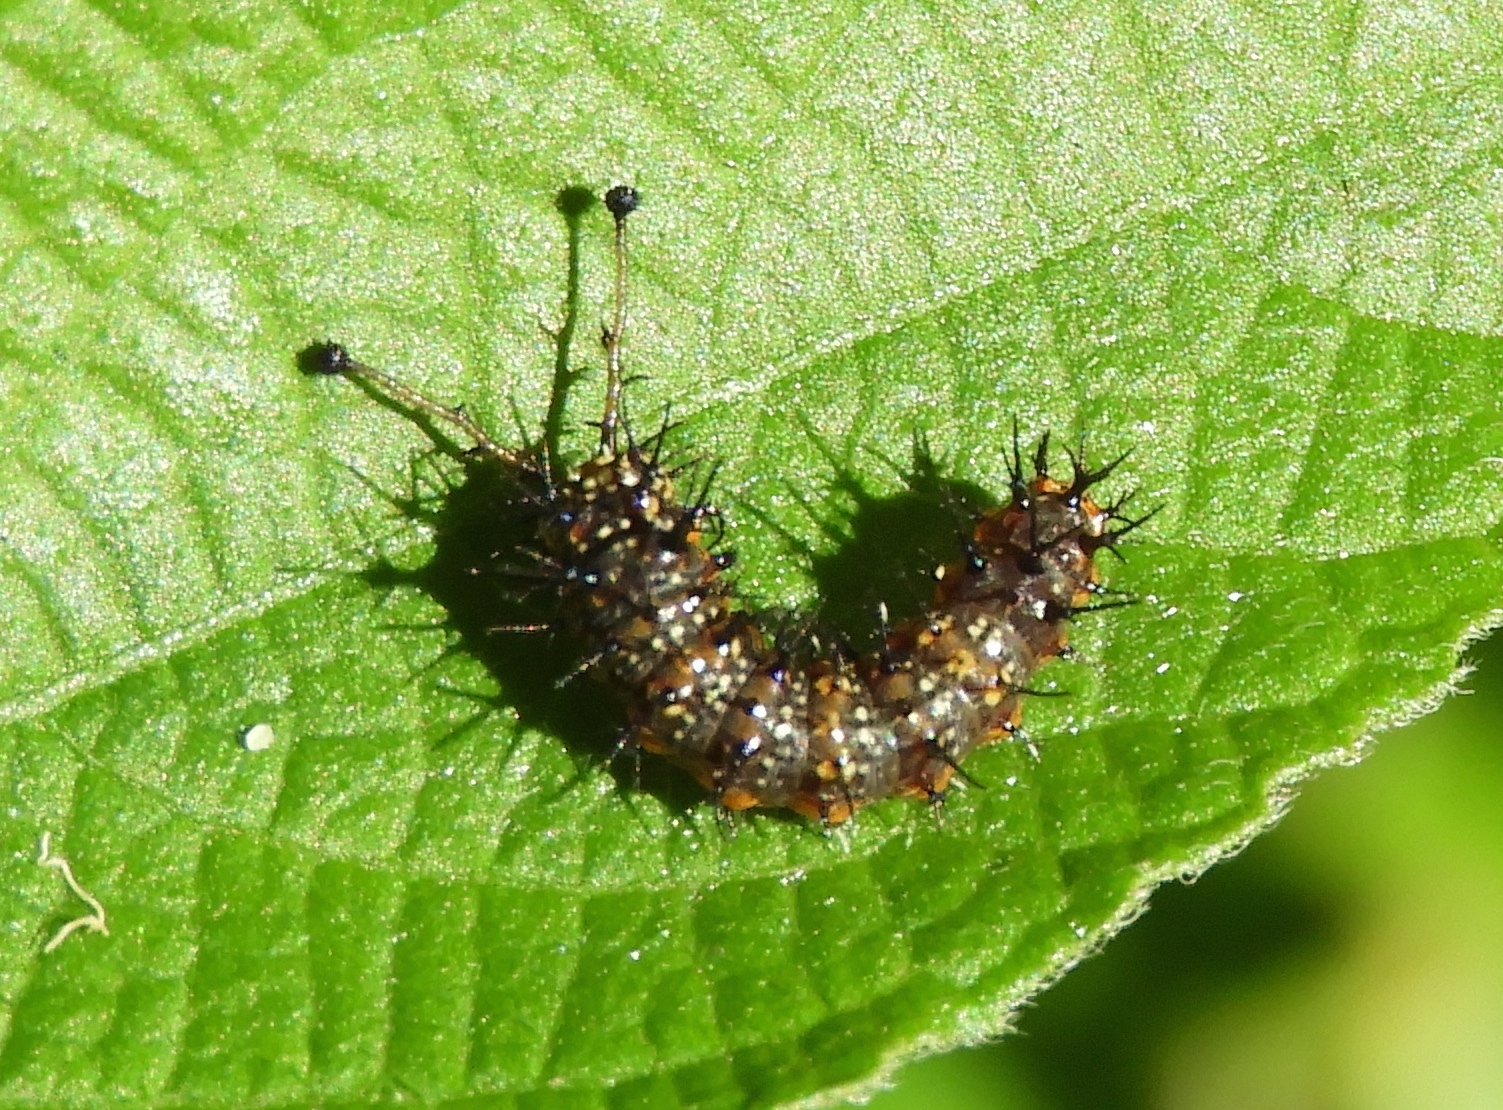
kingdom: Animalia
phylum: Arthropoda
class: Insecta
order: Lepidoptera
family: Nymphalidae
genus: Hamadryas
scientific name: Hamadryas
